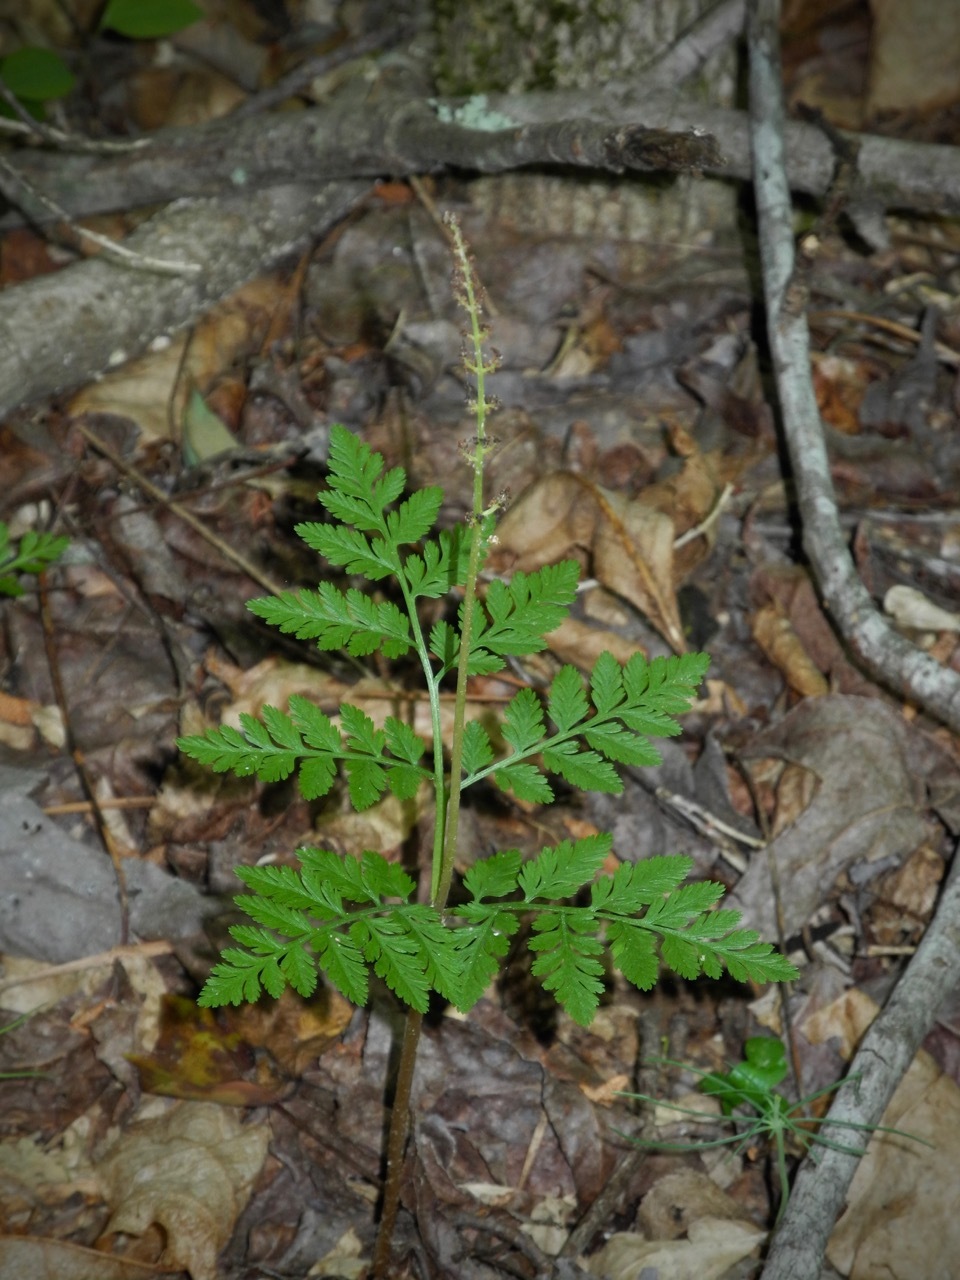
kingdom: Plantae
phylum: Tracheophyta
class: Polypodiopsida
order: Ophioglossales
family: Ophioglossaceae
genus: Botrypus
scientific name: Botrypus virginianus
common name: Common grapefern
